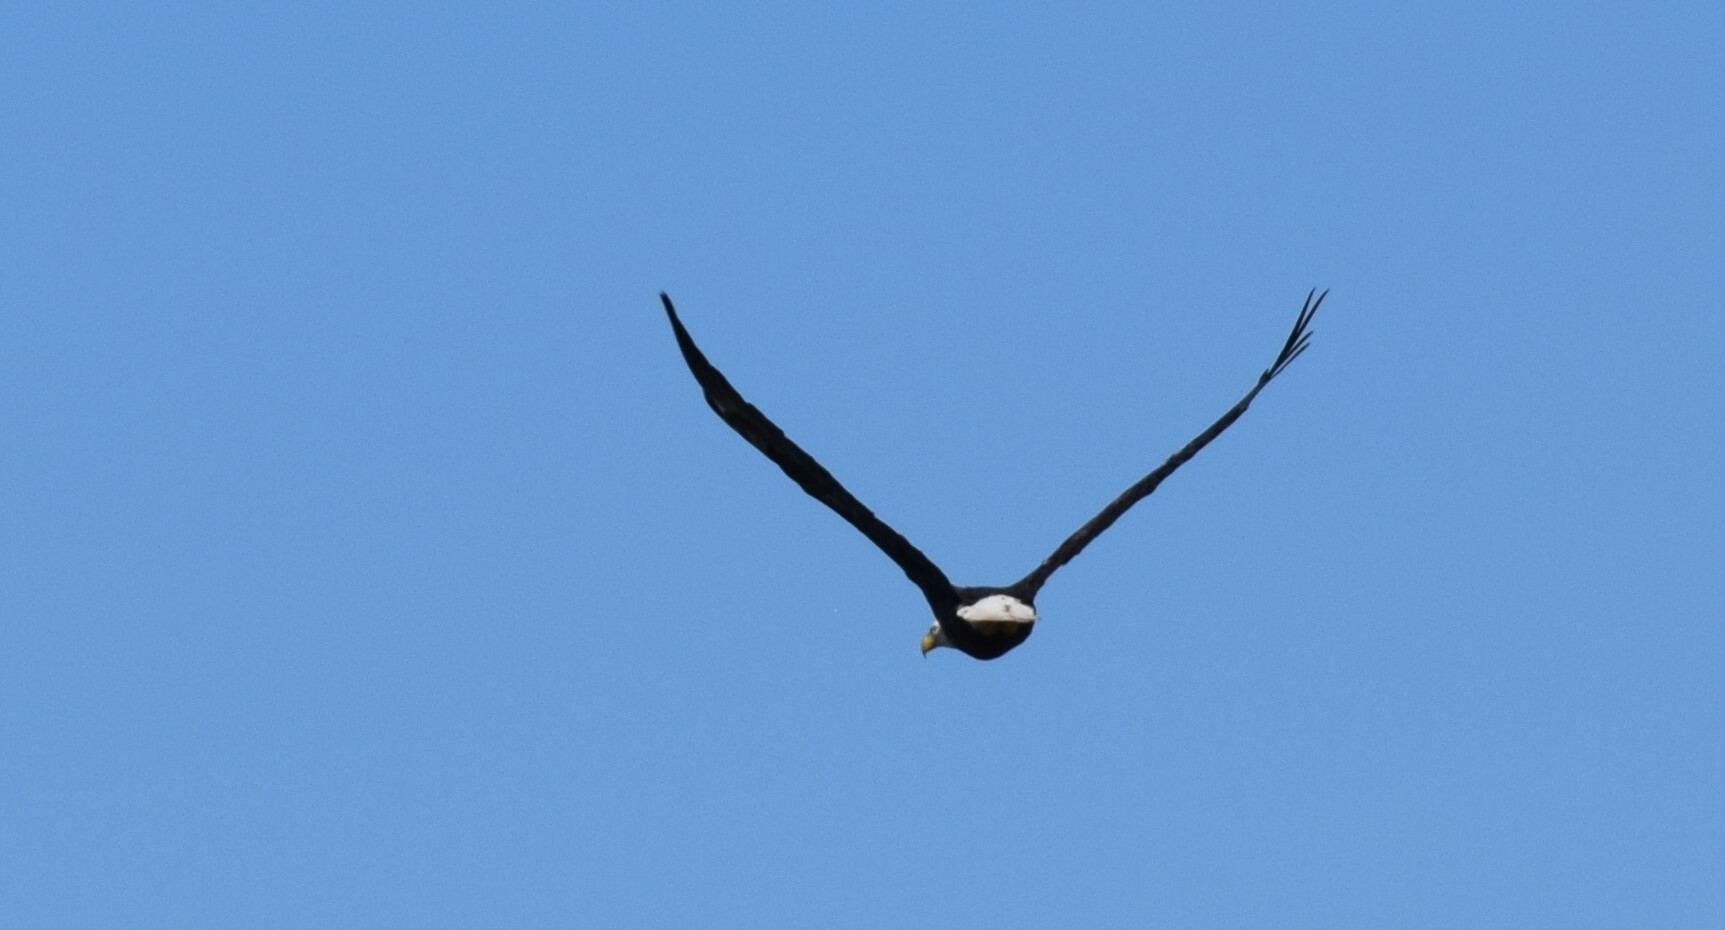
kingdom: Animalia
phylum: Chordata
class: Aves
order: Accipitriformes
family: Accipitridae
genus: Haliaeetus
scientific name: Haliaeetus leucocephalus
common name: Bald eagle
